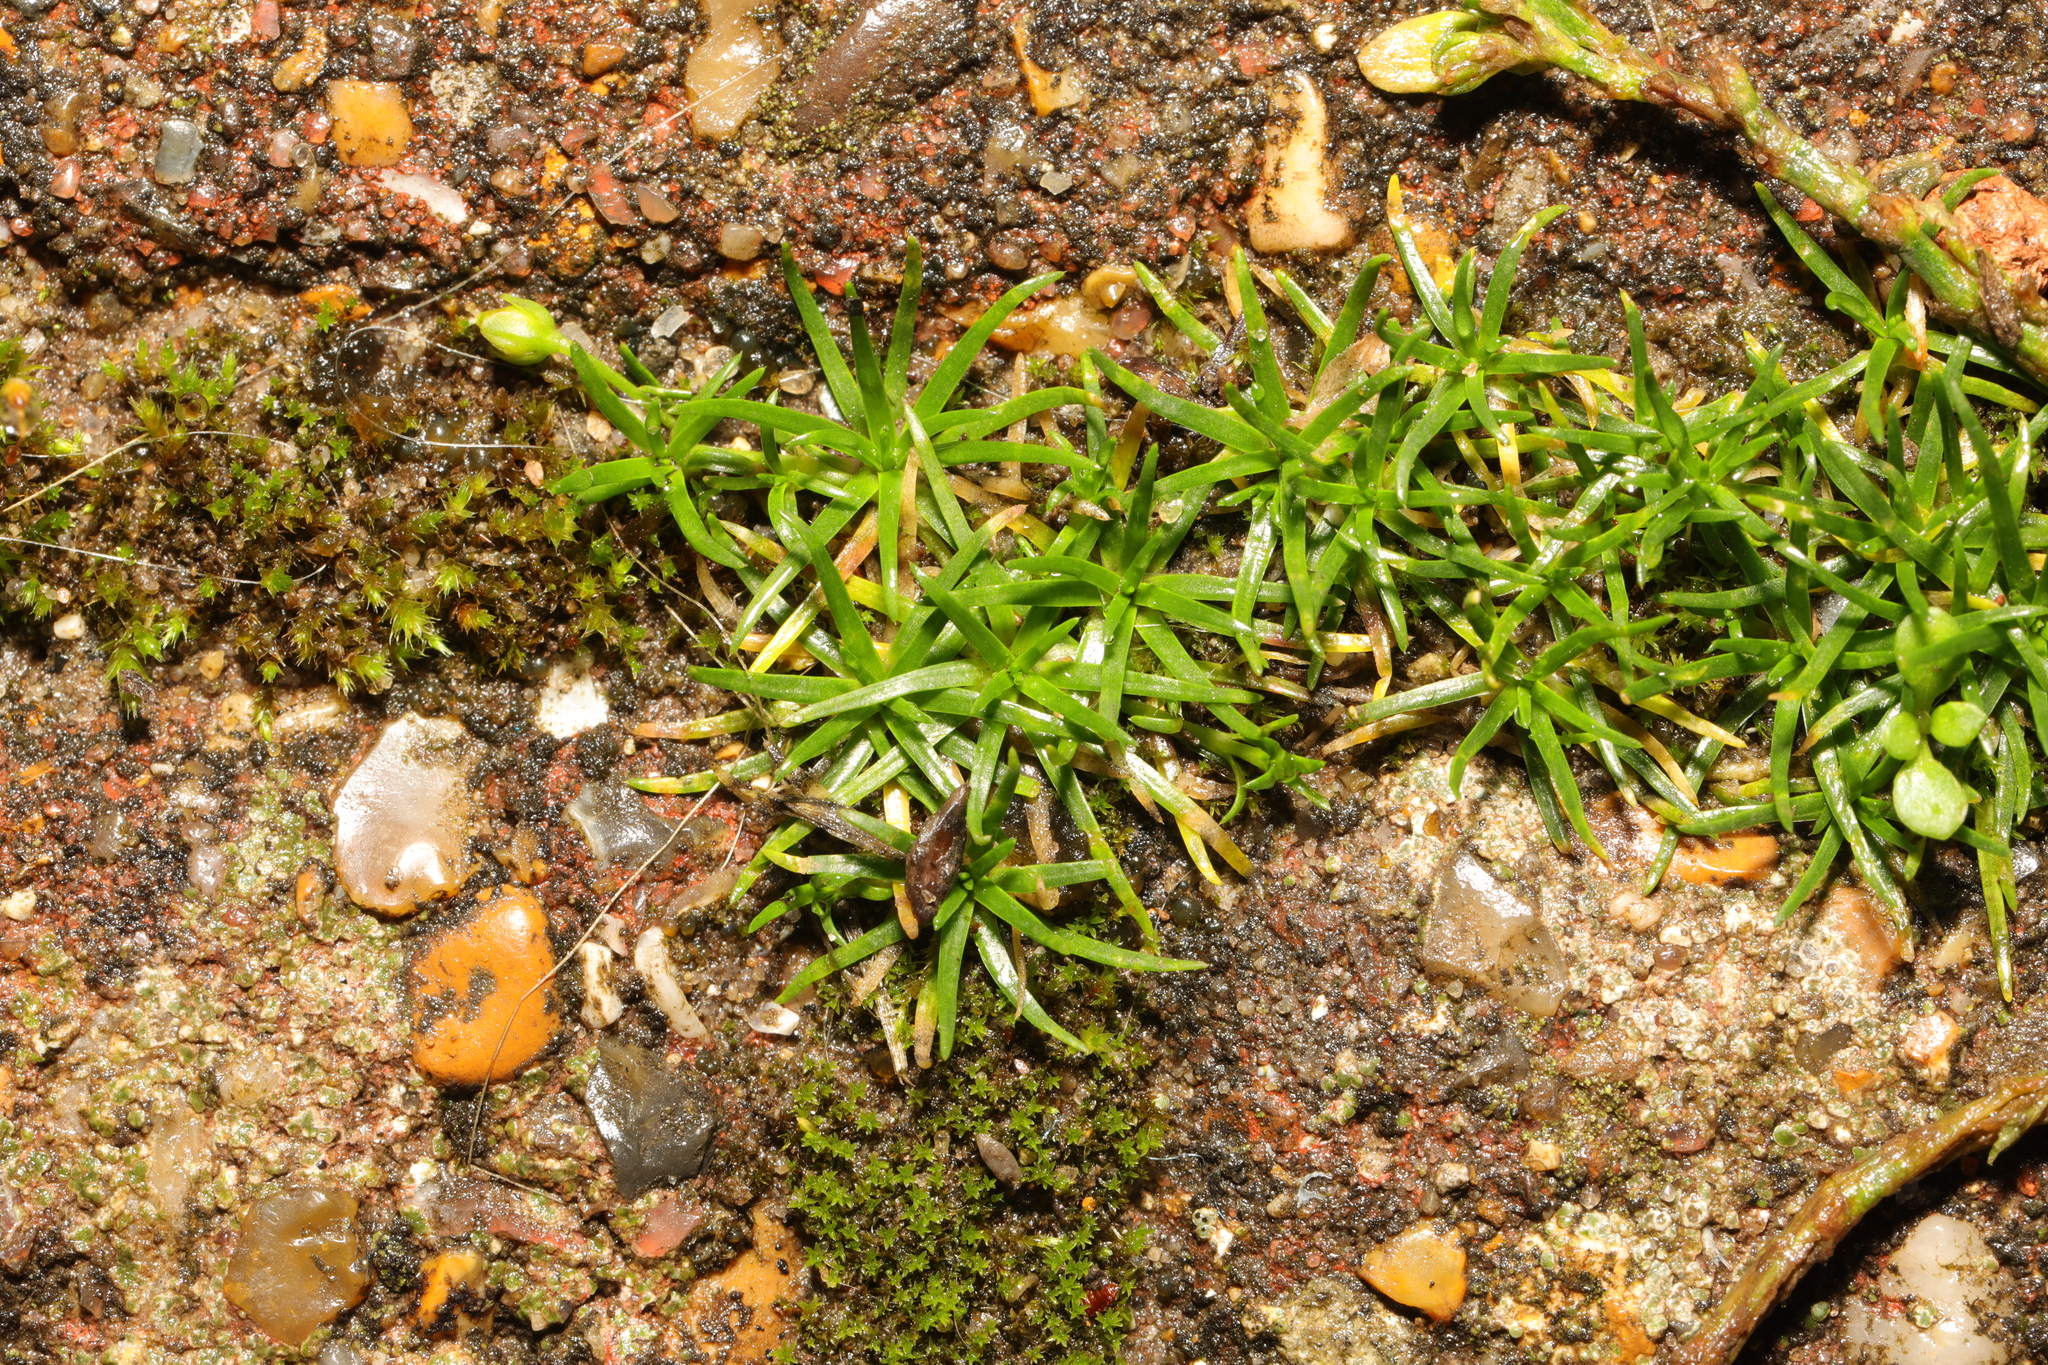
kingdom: Plantae
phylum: Tracheophyta
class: Magnoliopsida
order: Caryophyllales
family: Caryophyllaceae
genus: Sagina
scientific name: Sagina procumbens
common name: Procumbent pearlwort
